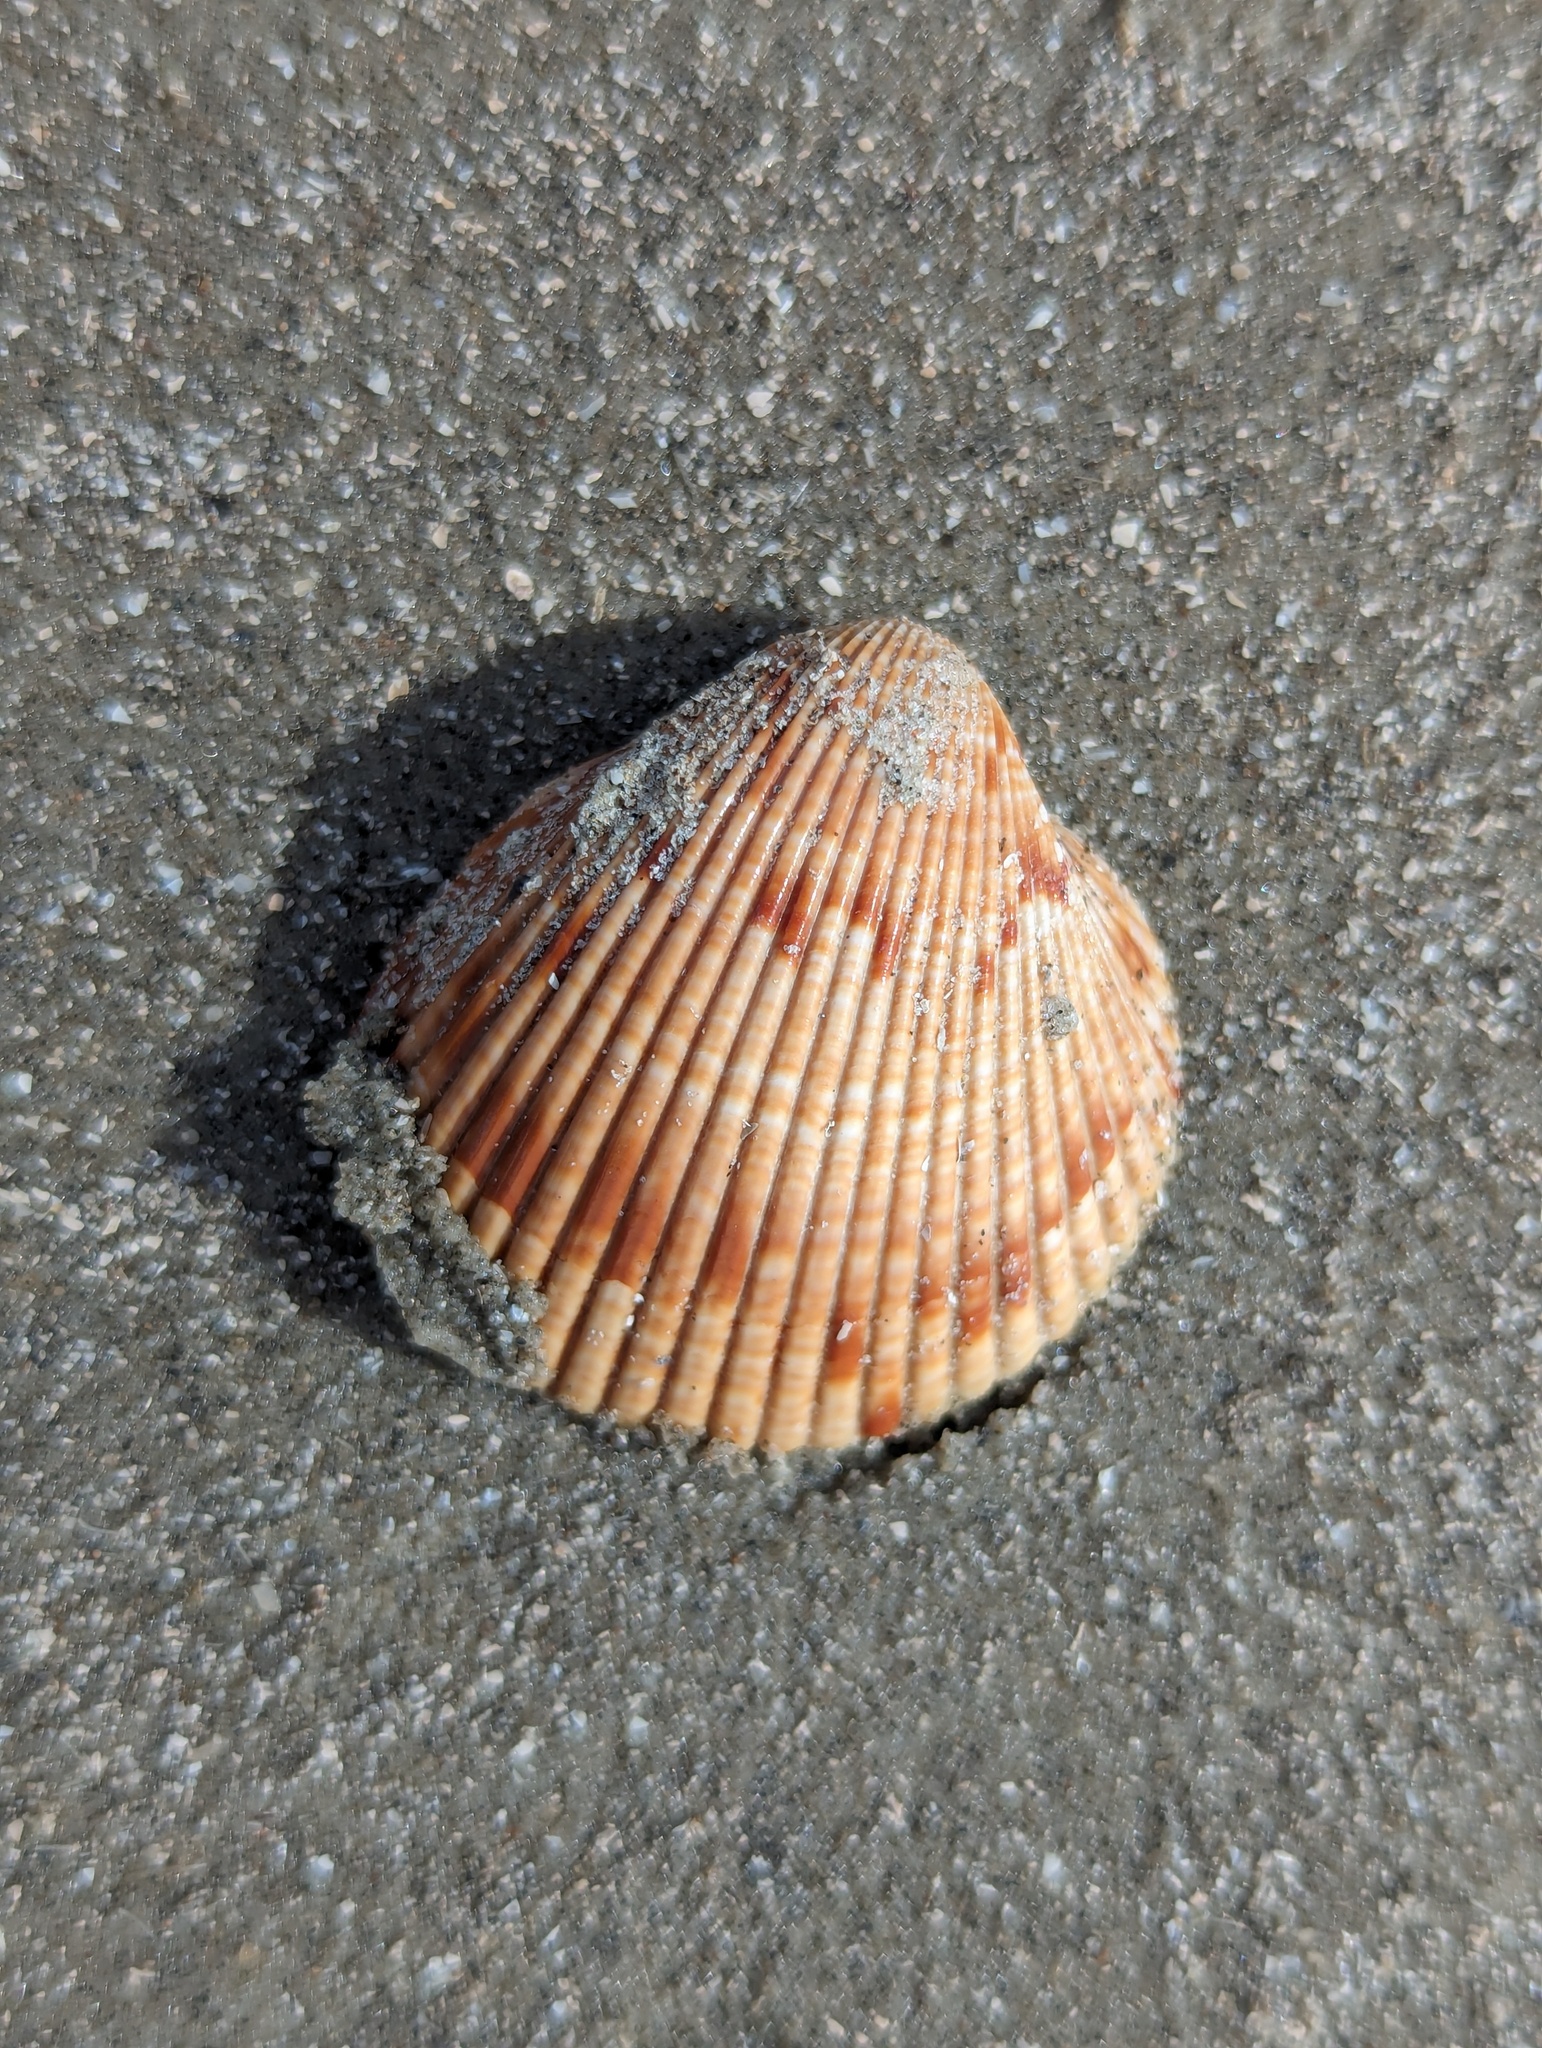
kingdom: Animalia
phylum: Mollusca
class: Bivalvia
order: Cardiida
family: Cardiidae
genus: Dinocardium
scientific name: Dinocardium robustum
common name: Atlantic giant cockle
